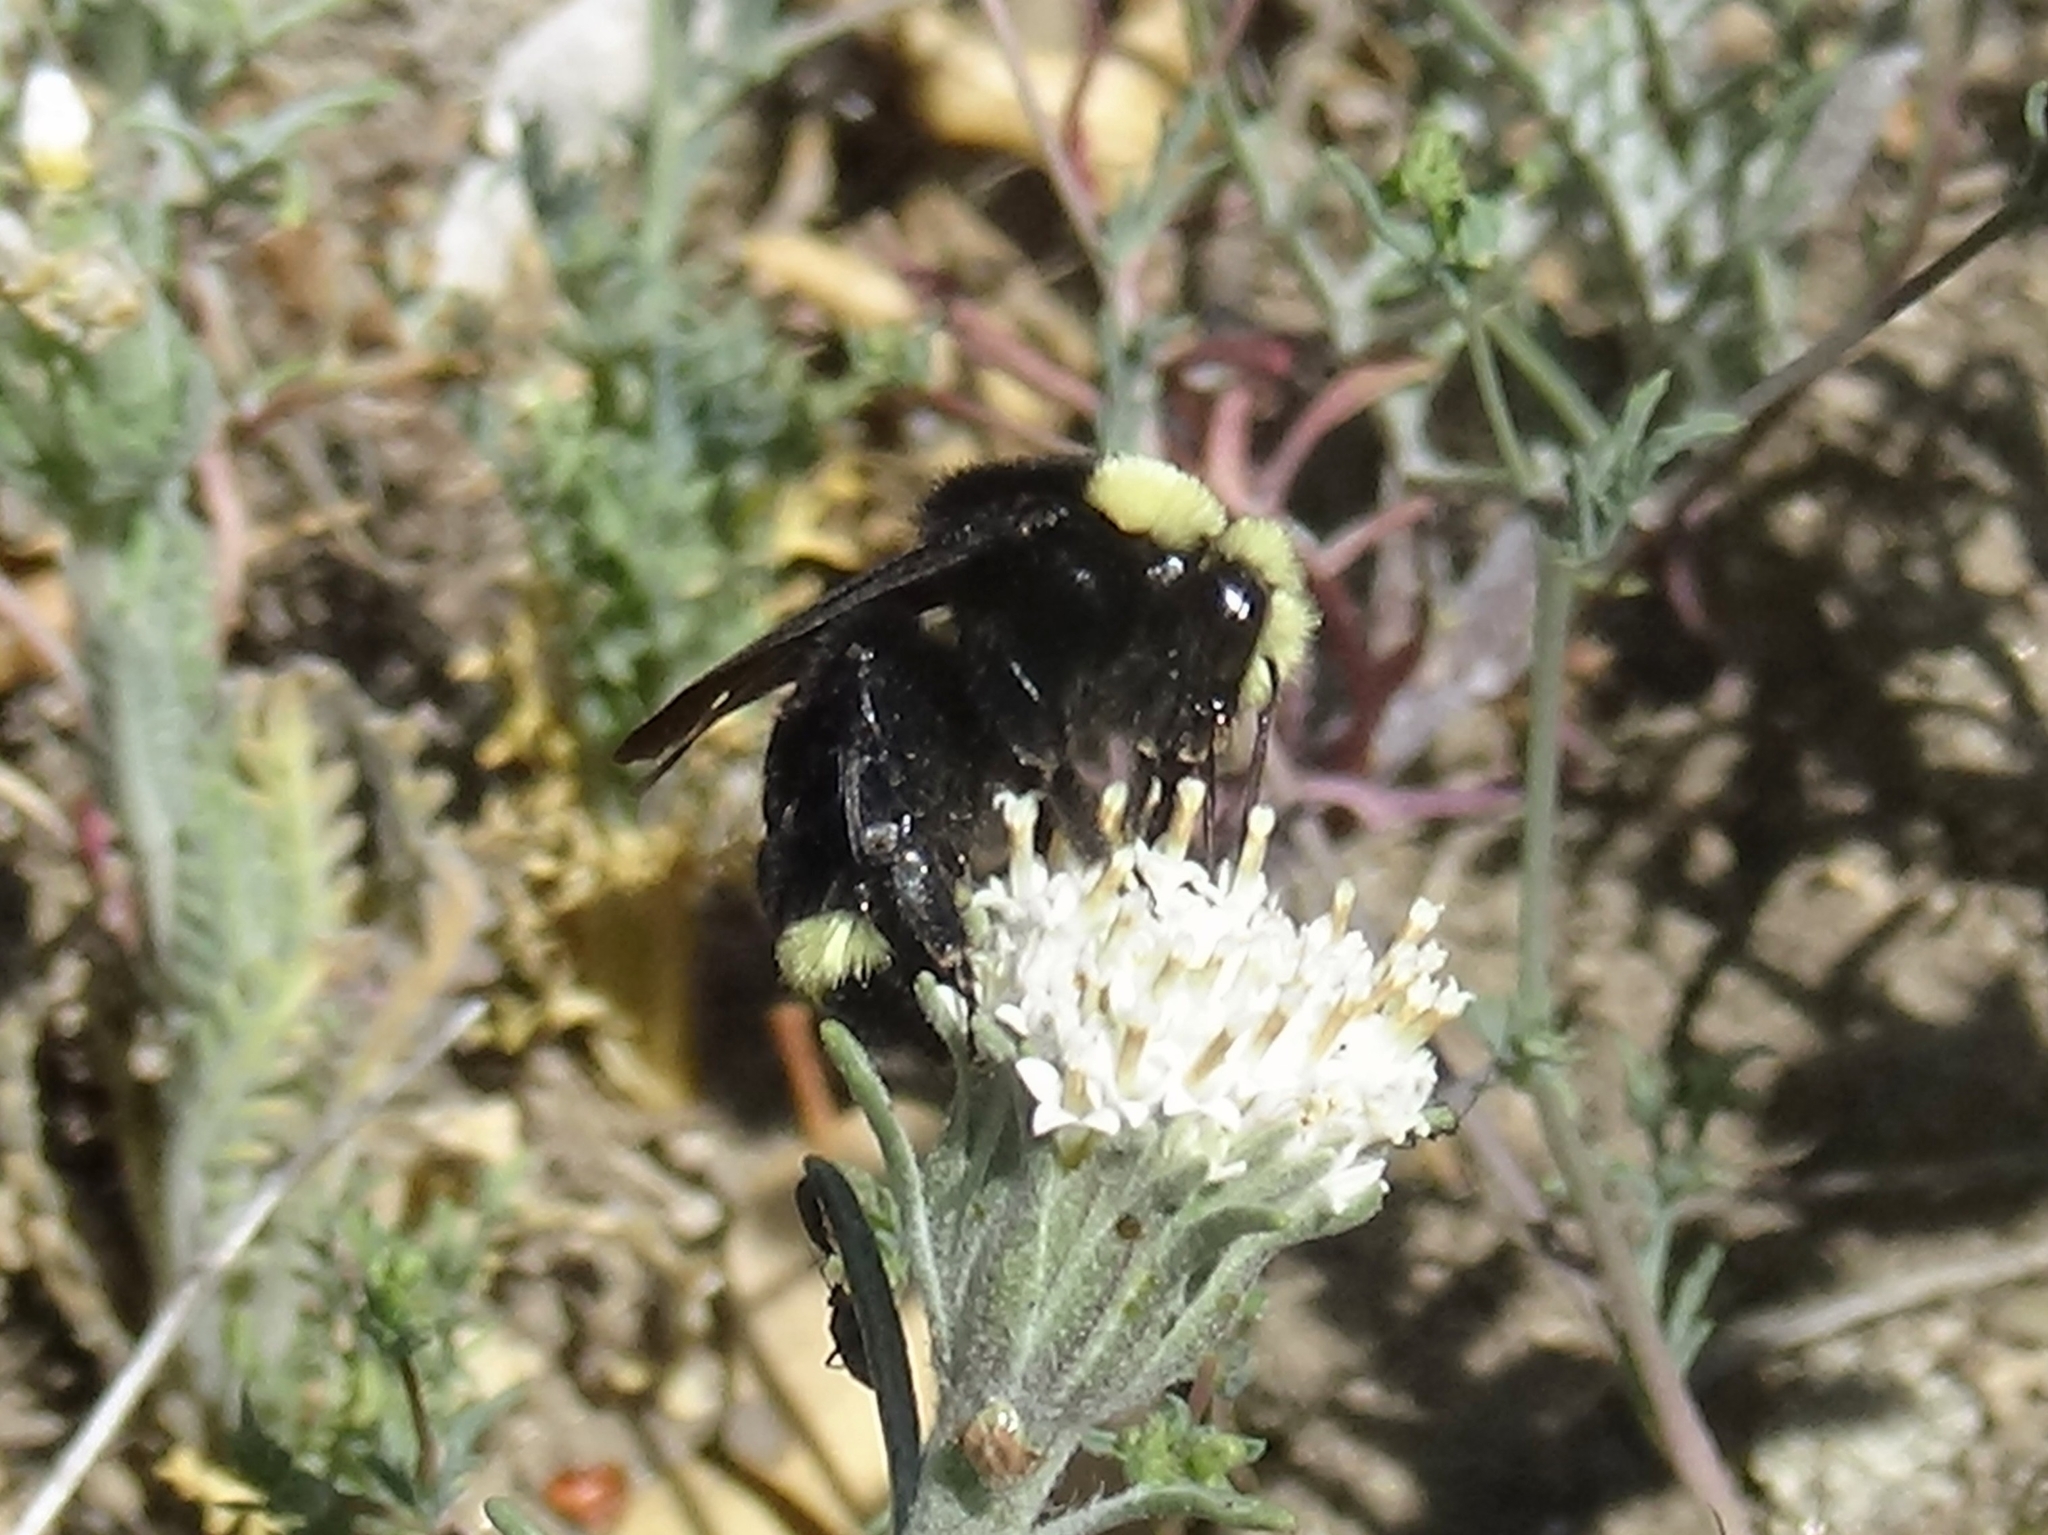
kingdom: Animalia
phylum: Arthropoda
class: Insecta
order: Hymenoptera
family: Apidae
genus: Bombus
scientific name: Bombus vosnesenskii
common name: Vosnesensky bumble bee
